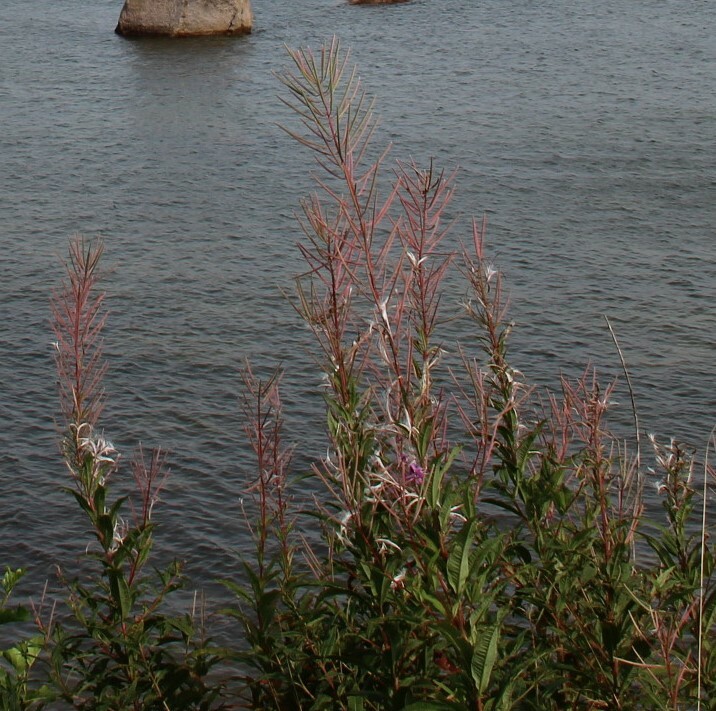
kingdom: Plantae
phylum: Tracheophyta
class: Magnoliopsida
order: Myrtales
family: Onagraceae
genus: Chamaenerion
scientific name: Chamaenerion angustifolium
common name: Fireweed
